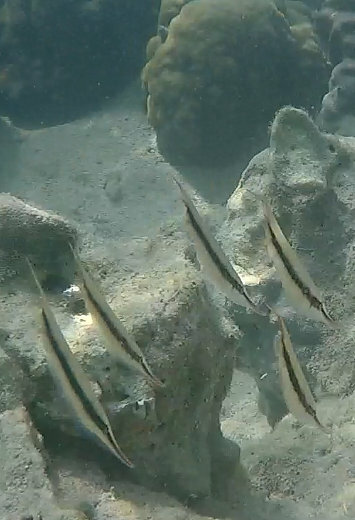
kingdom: Animalia
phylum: Chordata
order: Syngnathiformes
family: Centriscidae
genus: Aeoliscus
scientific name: Aeoliscus strigatus
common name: Canif
